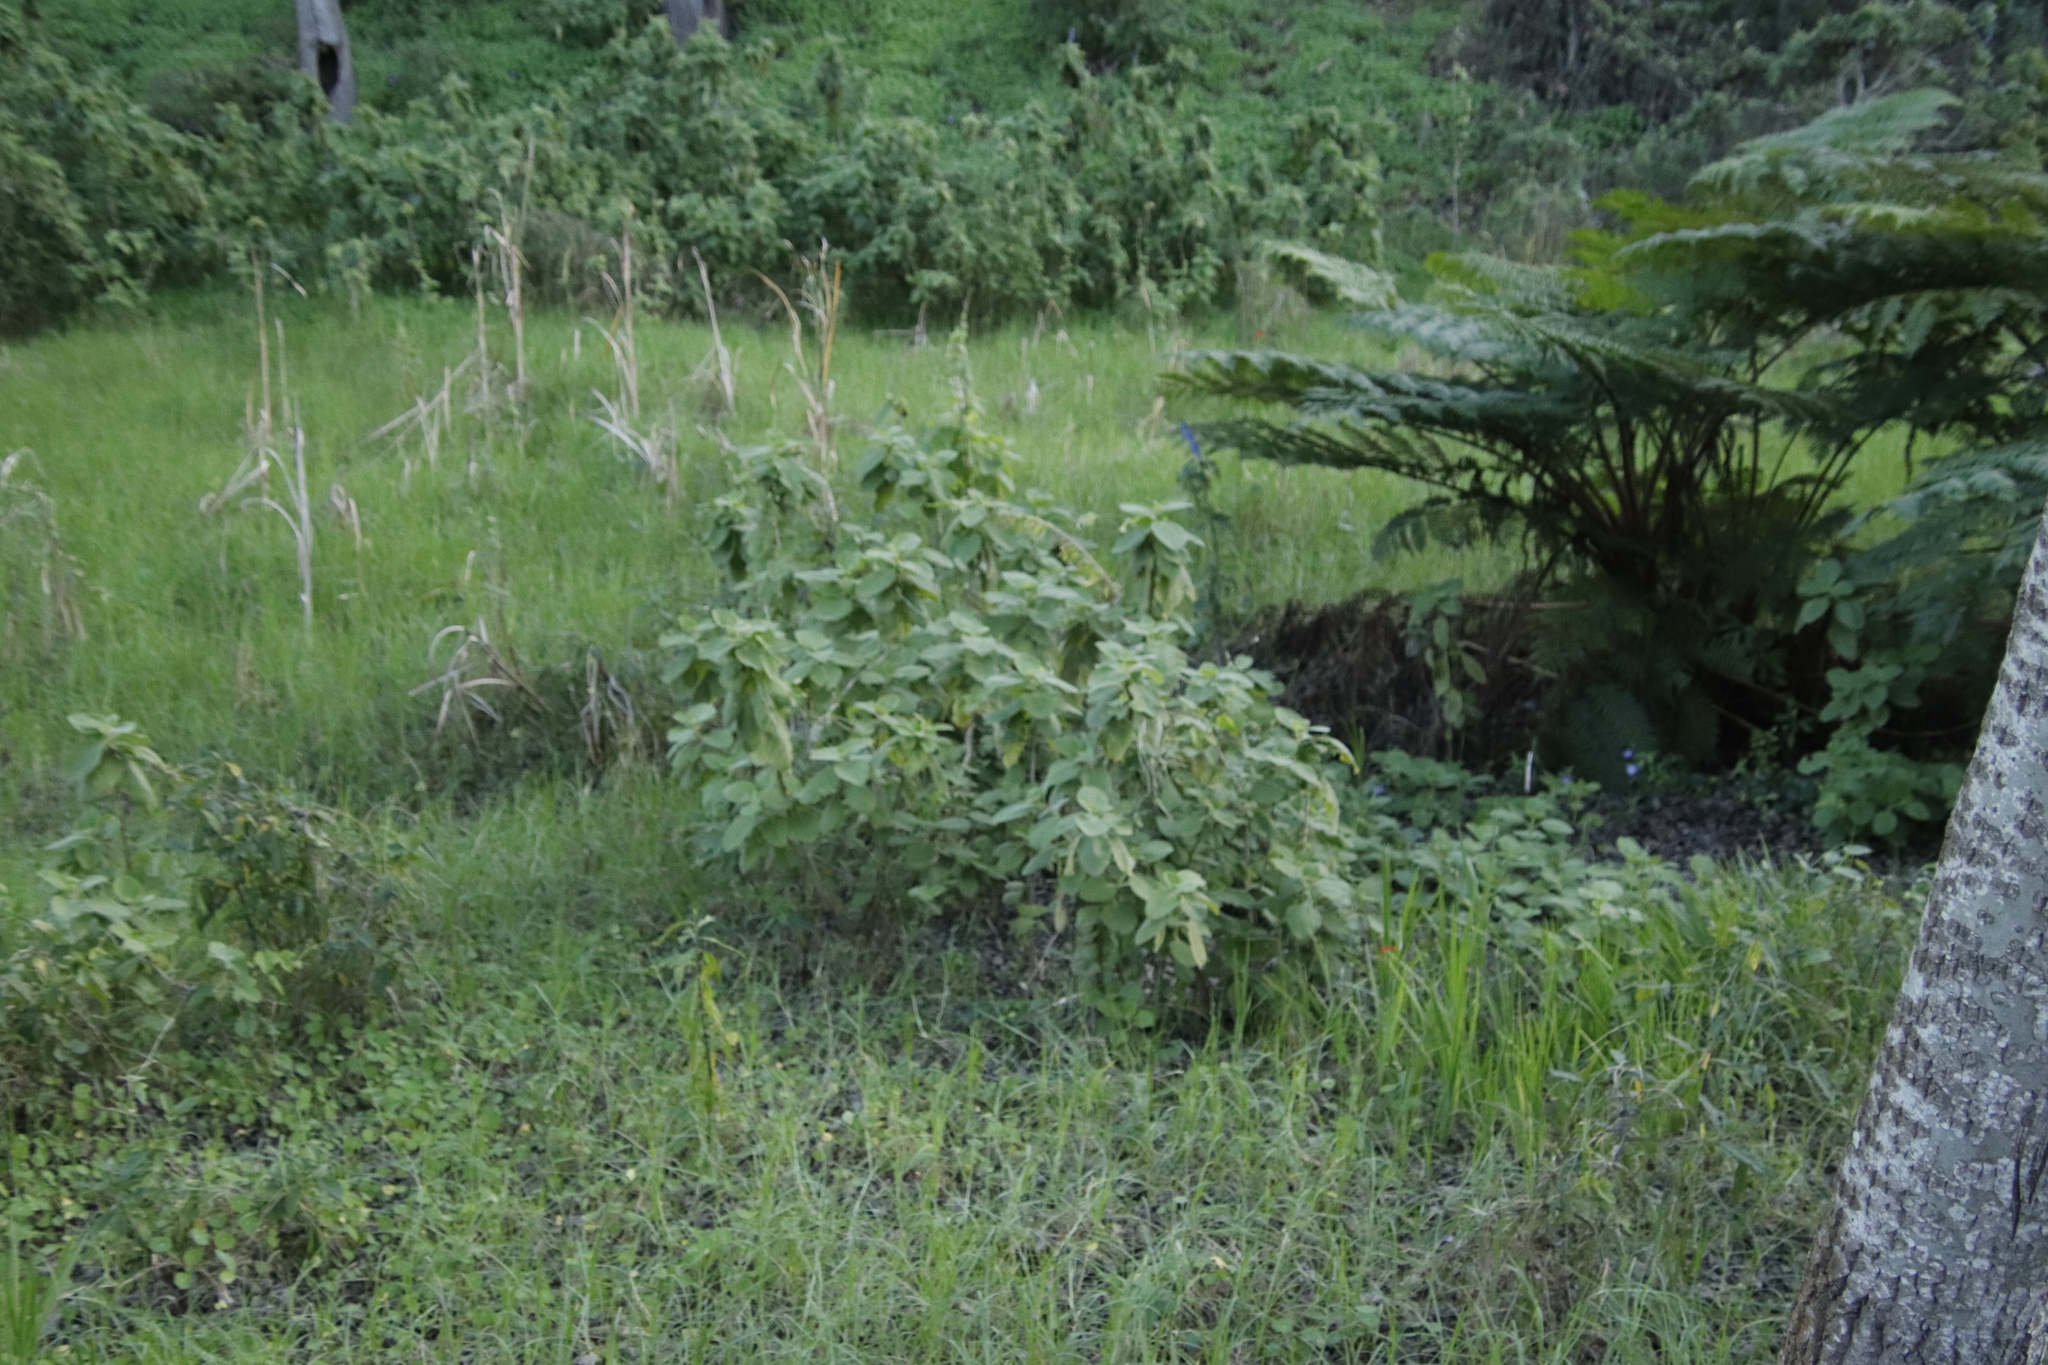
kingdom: Plantae
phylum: Tracheophyta
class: Magnoliopsida
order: Lamiales
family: Lamiaceae
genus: Coleus
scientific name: Coleus barbatus
